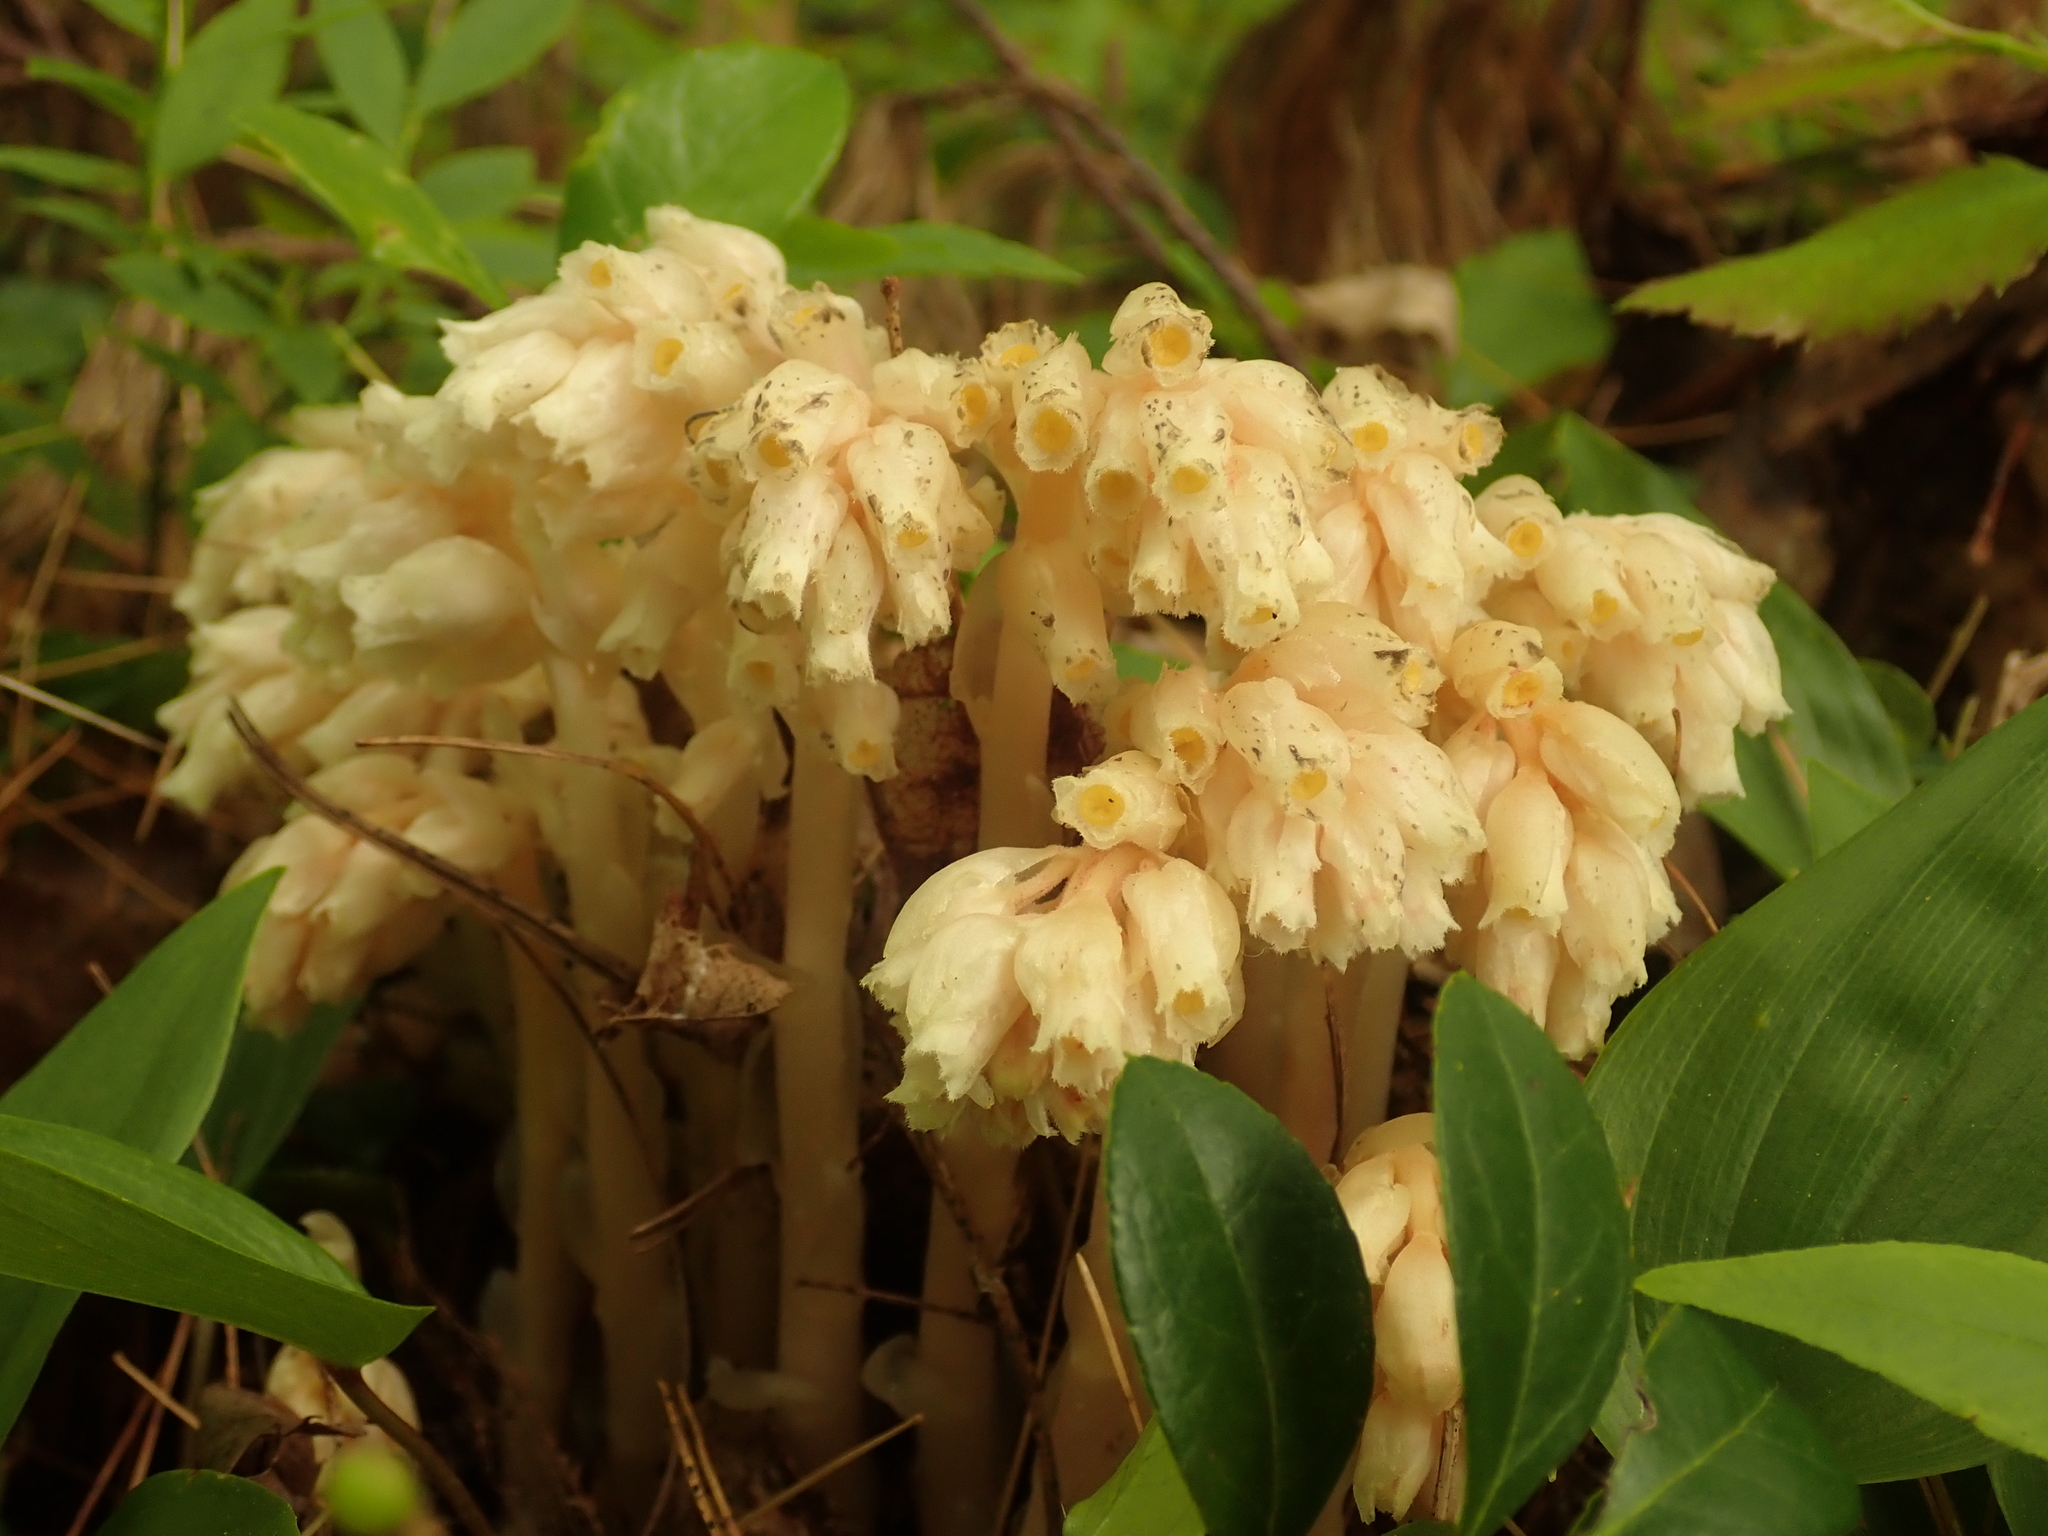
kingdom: Plantae
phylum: Tracheophyta
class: Magnoliopsida
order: Ericales
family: Ericaceae
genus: Hypopitys
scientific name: Hypopitys monotropa
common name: Yellow bird's-nest
